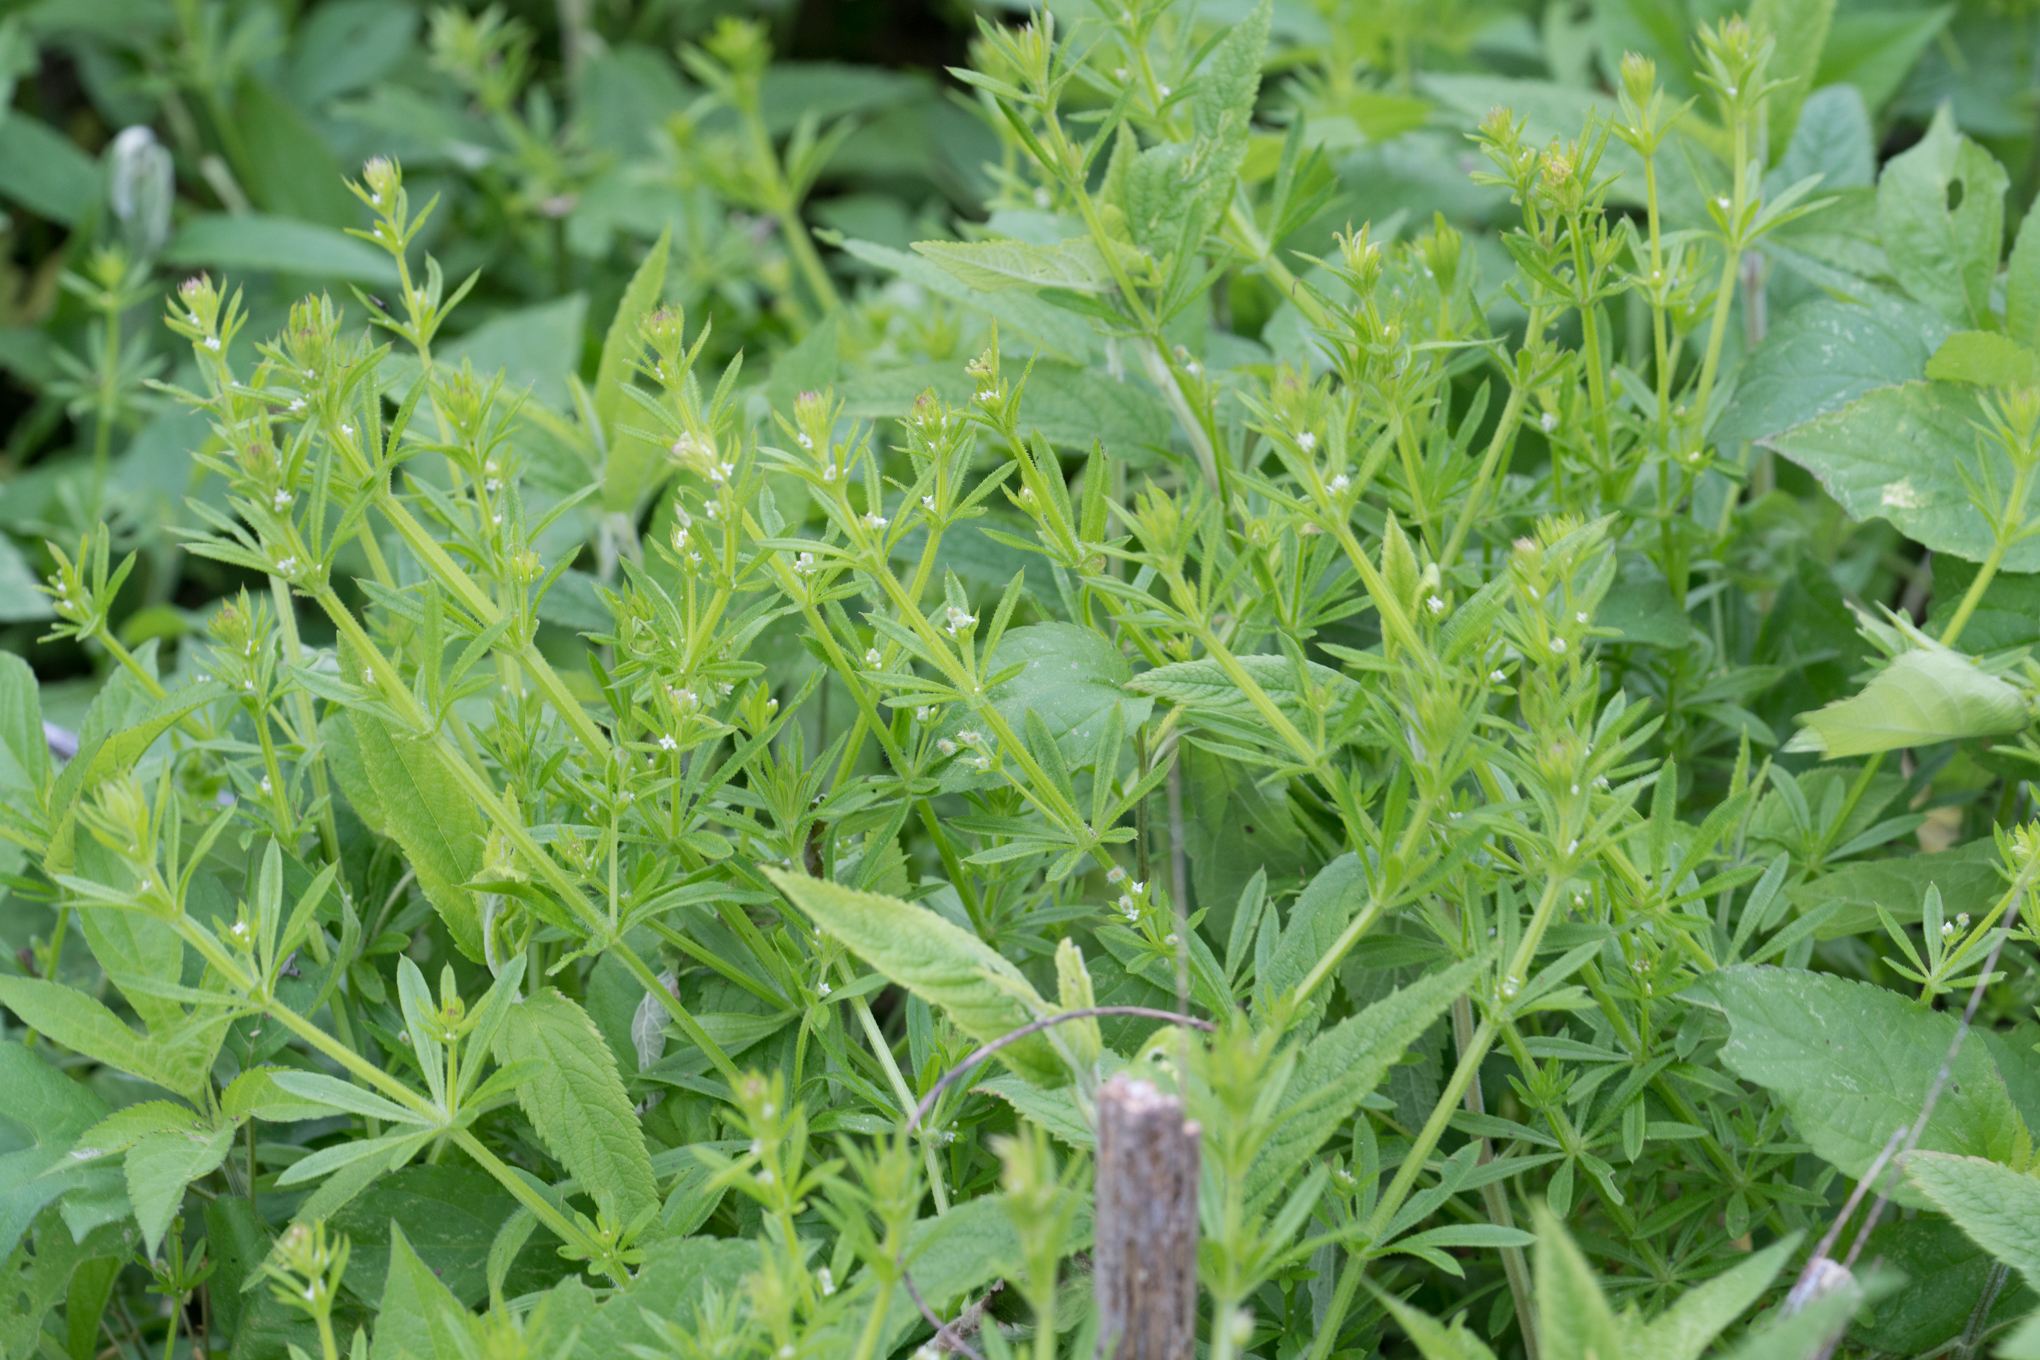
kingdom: Plantae
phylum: Tracheophyta
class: Magnoliopsida
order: Gentianales
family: Rubiaceae
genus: Galium
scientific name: Galium aparine
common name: Cleavers
